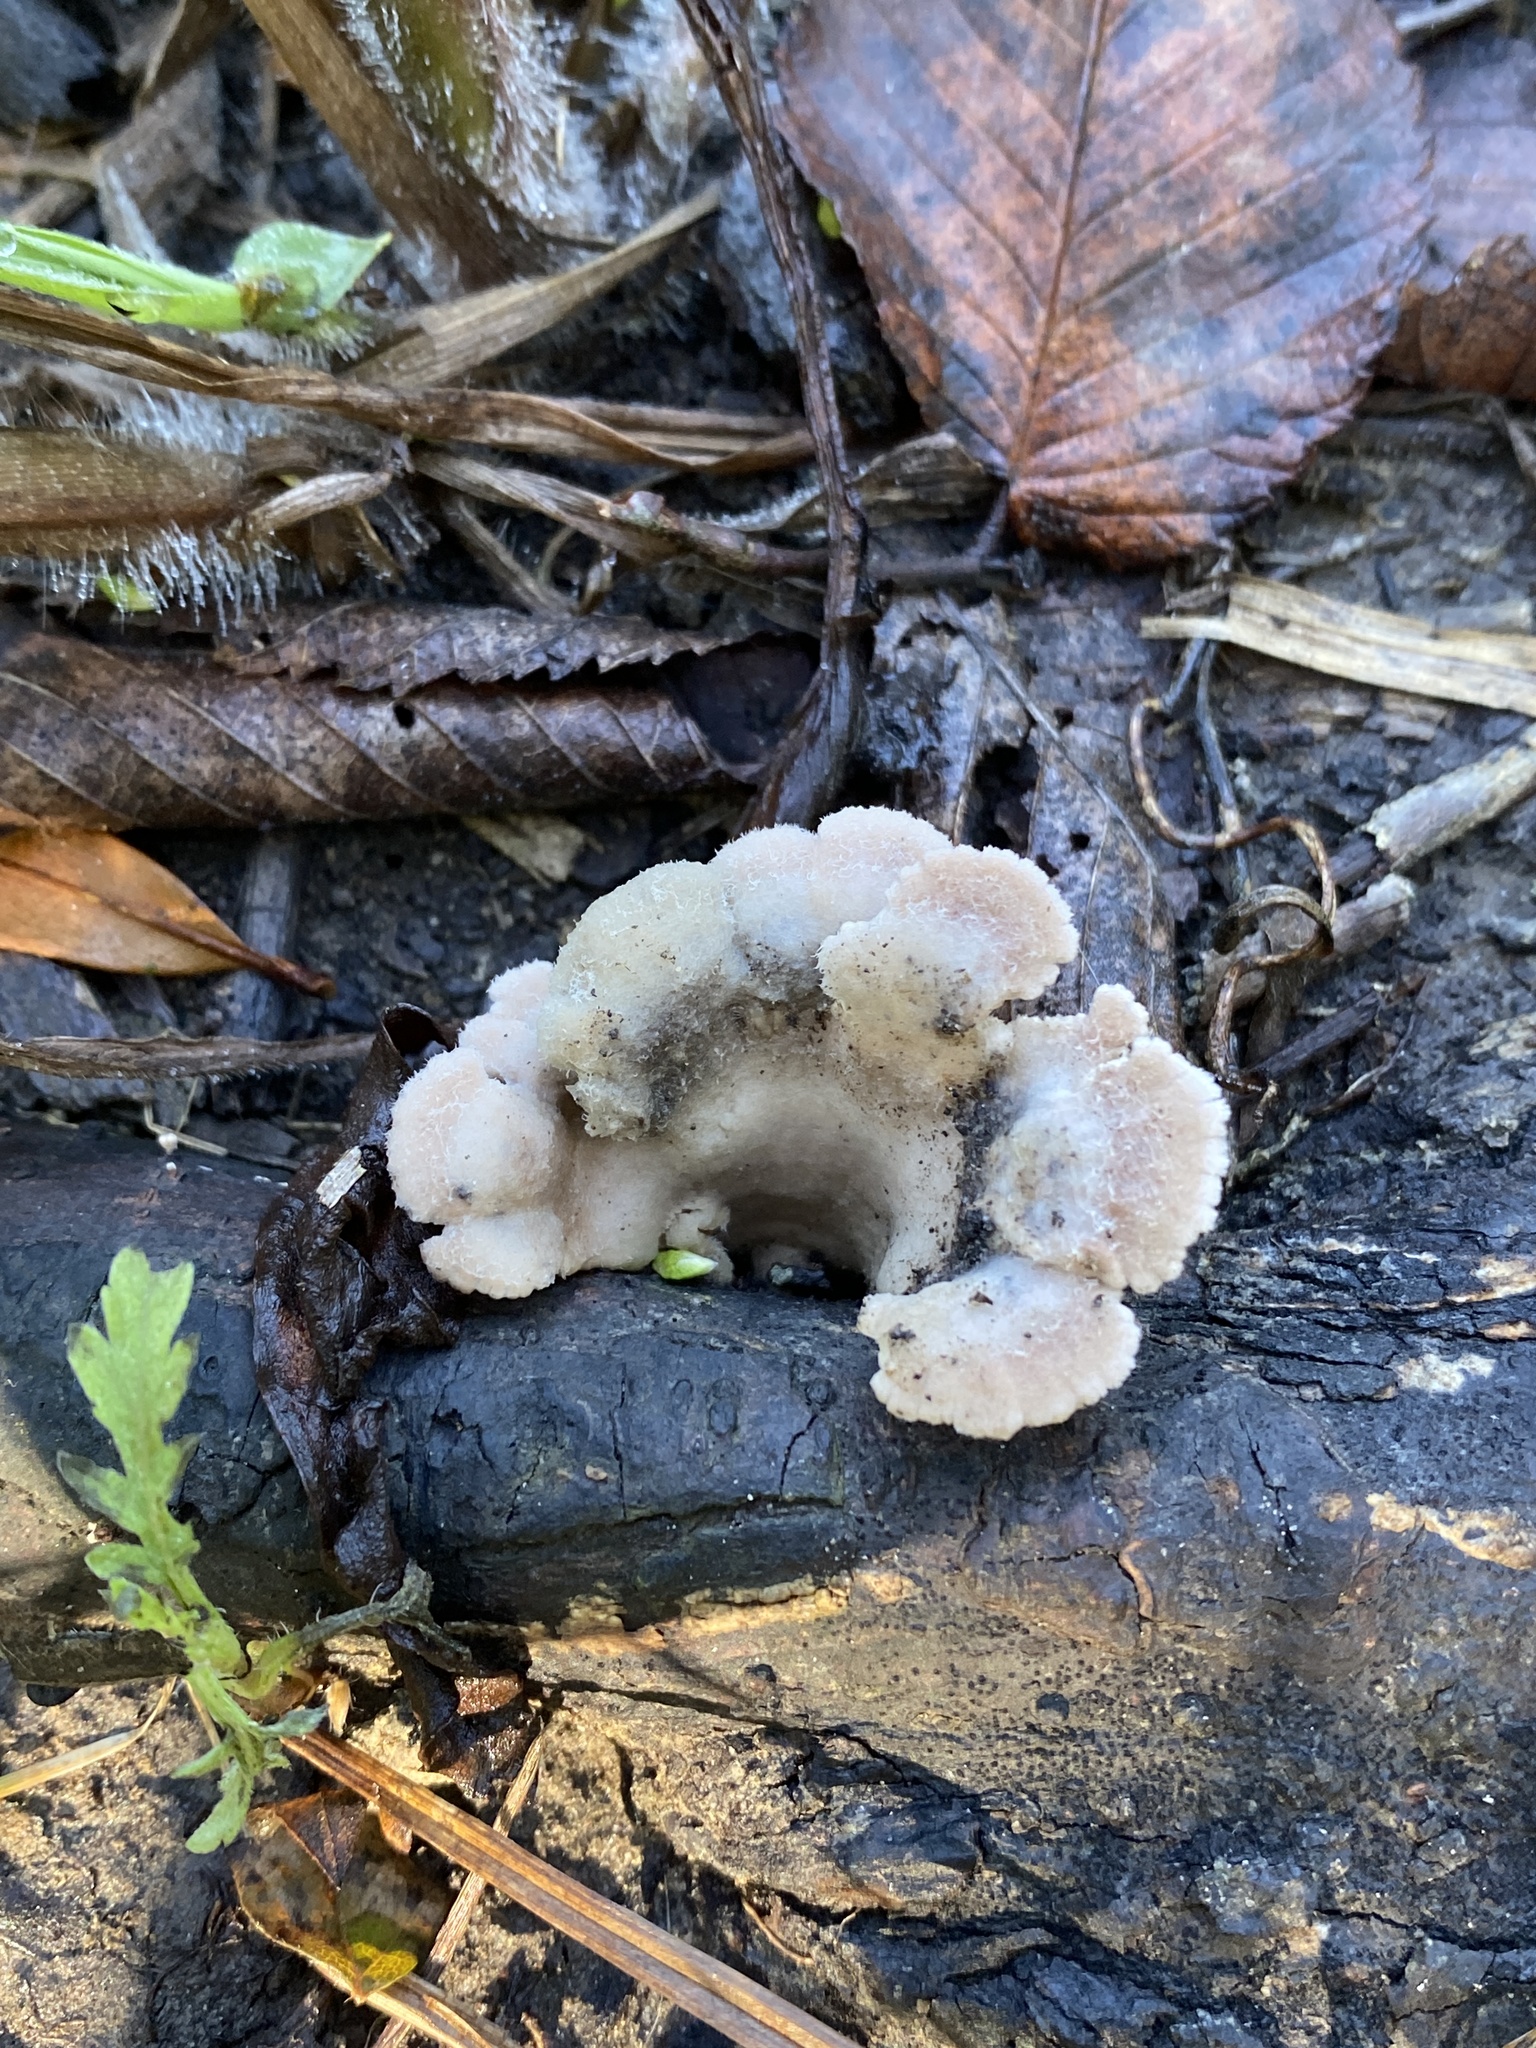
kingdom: Fungi
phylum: Basidiomycota
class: Agaricomycetes
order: Agaricales
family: Schizophyllaceae
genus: Schizophyllum
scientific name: Schizophyllum commune
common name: Common porecrust
